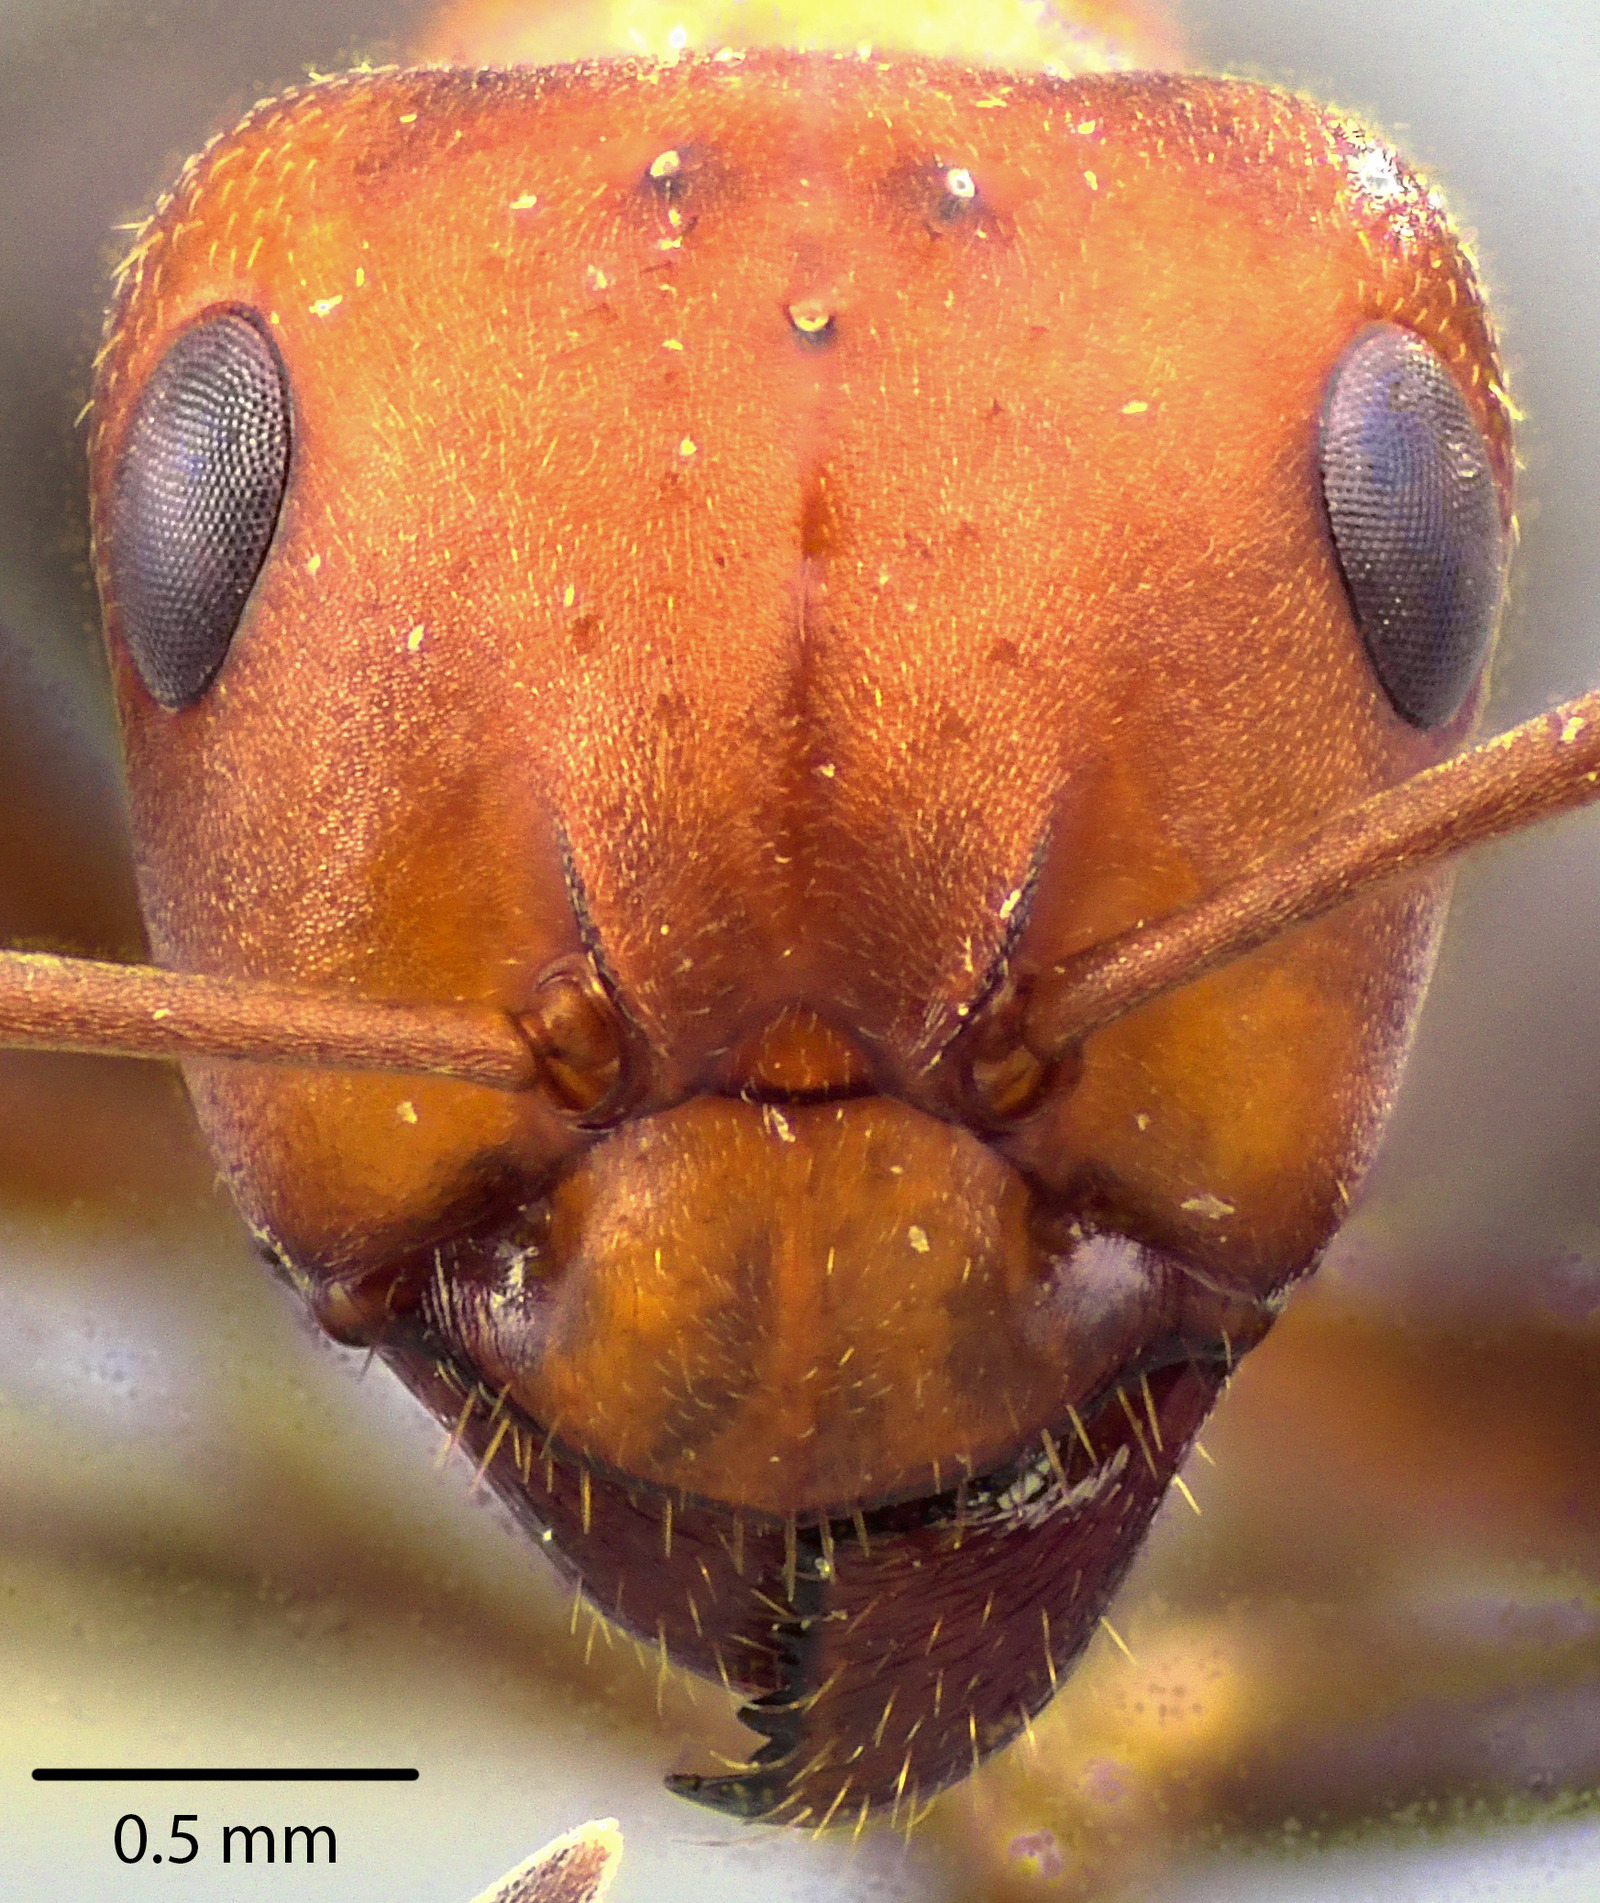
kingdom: Animalia
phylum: Arthropoda
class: Insecta
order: Hymenoptera
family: Formicidae
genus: Formica
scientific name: Formica obscuriventris
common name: Northern red wood ant
